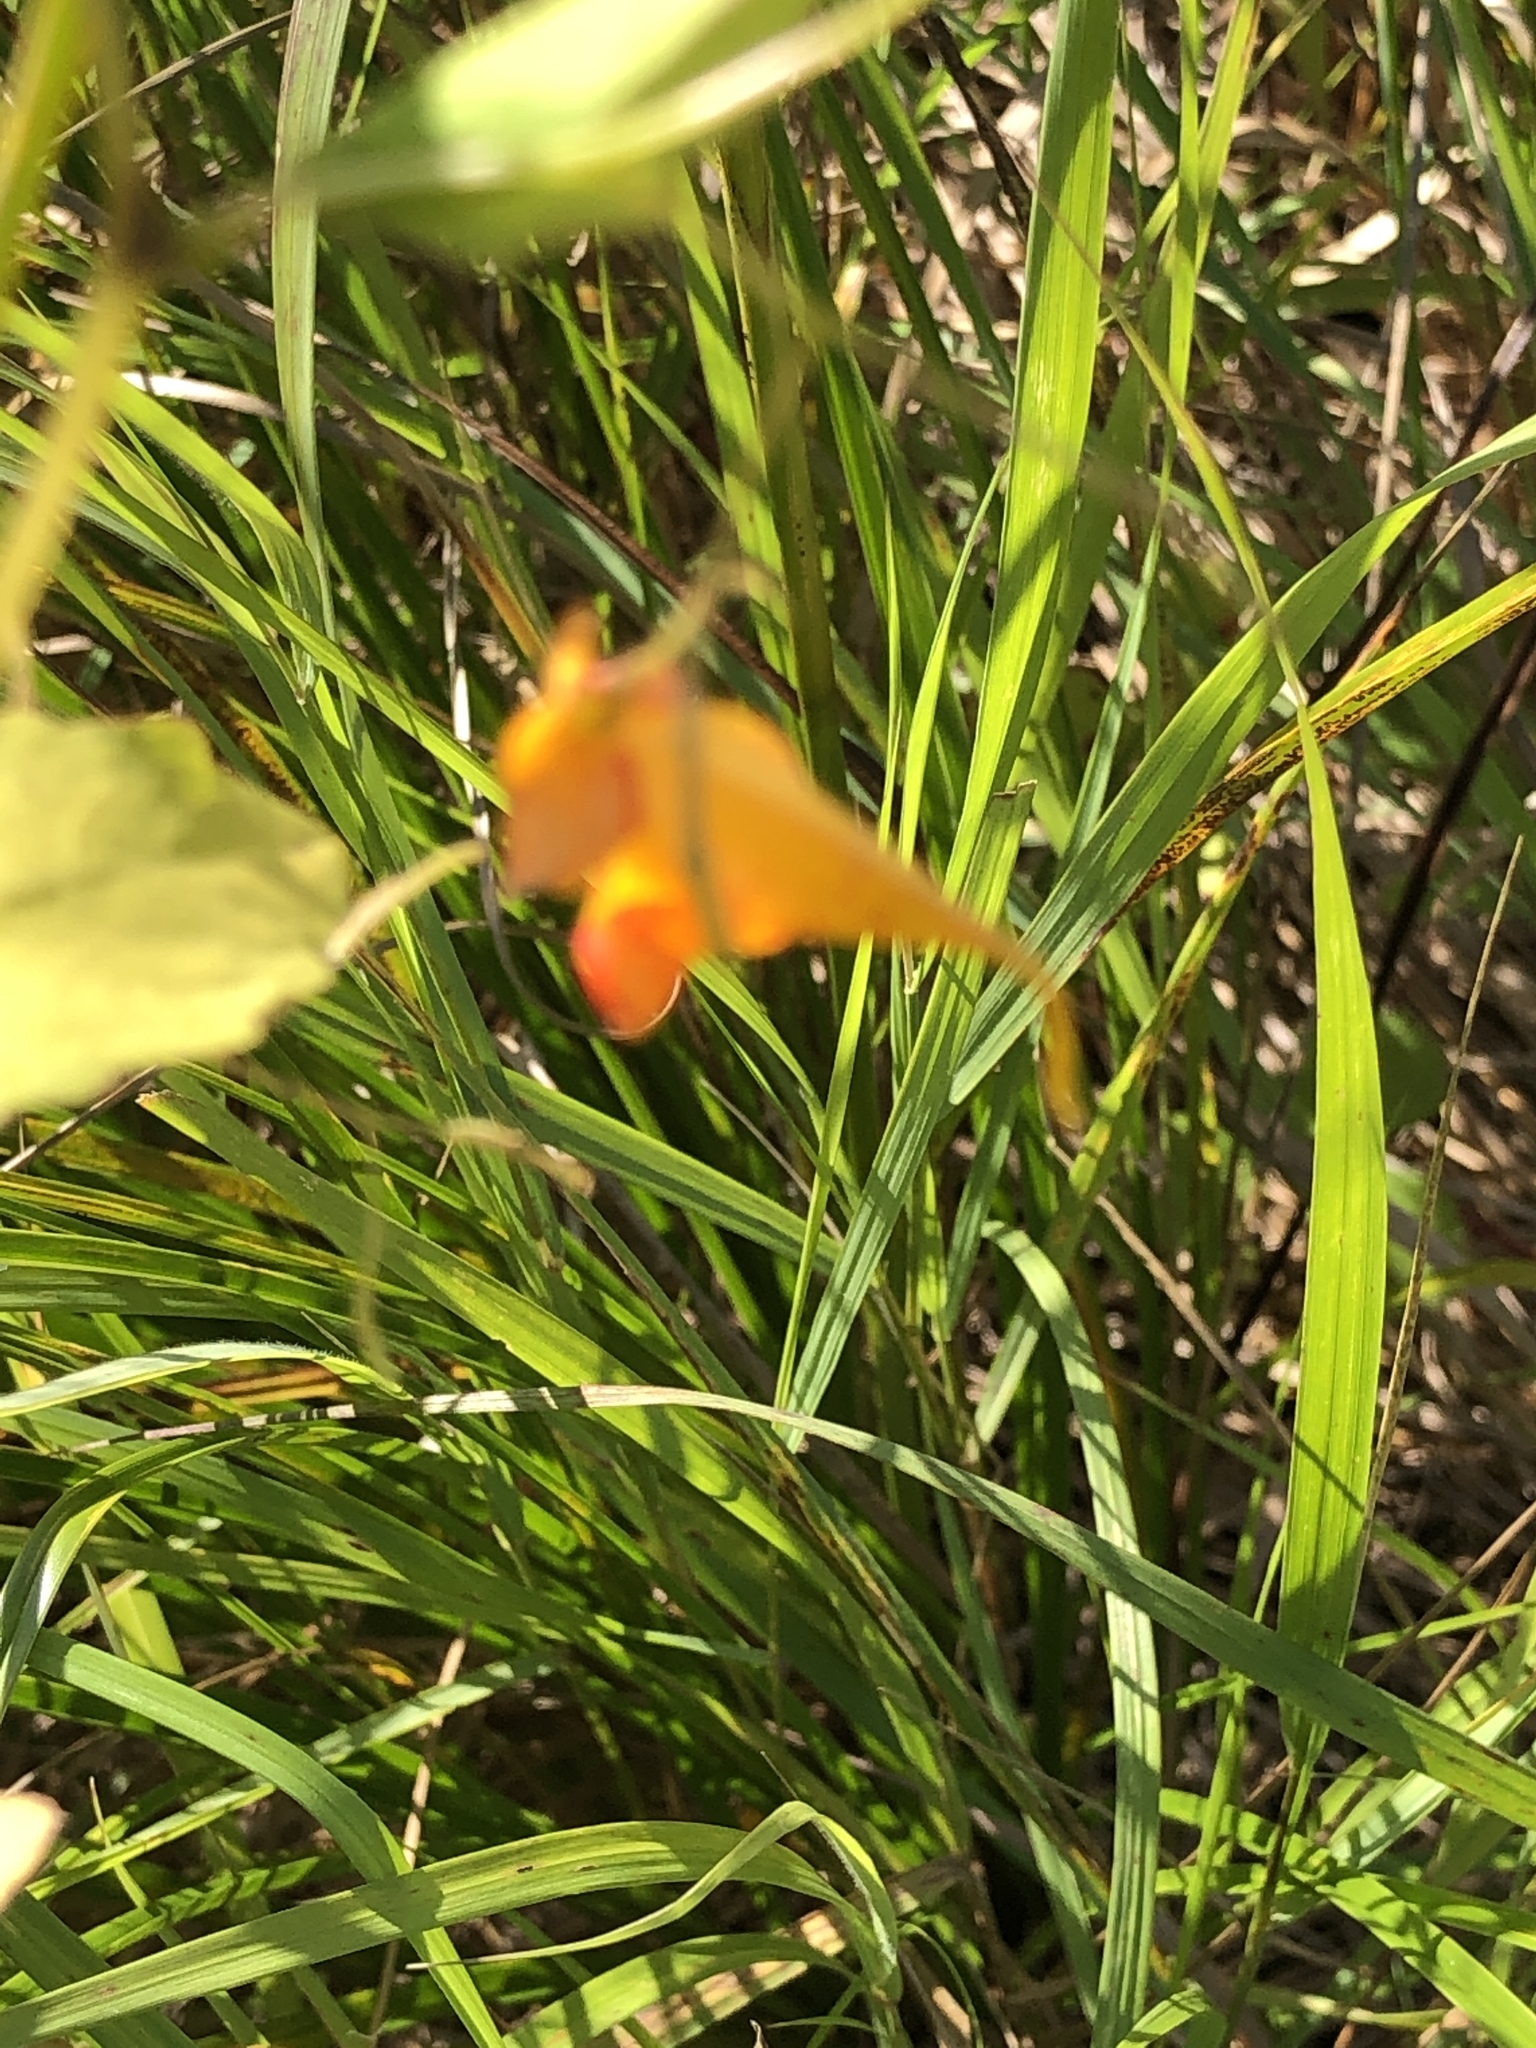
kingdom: Plantae
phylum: Tracheophyta
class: Magnoliopsida
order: Ericales
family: Balsaminaceae
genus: Impatiens
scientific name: Impatiens capensis
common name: Orange balsam
